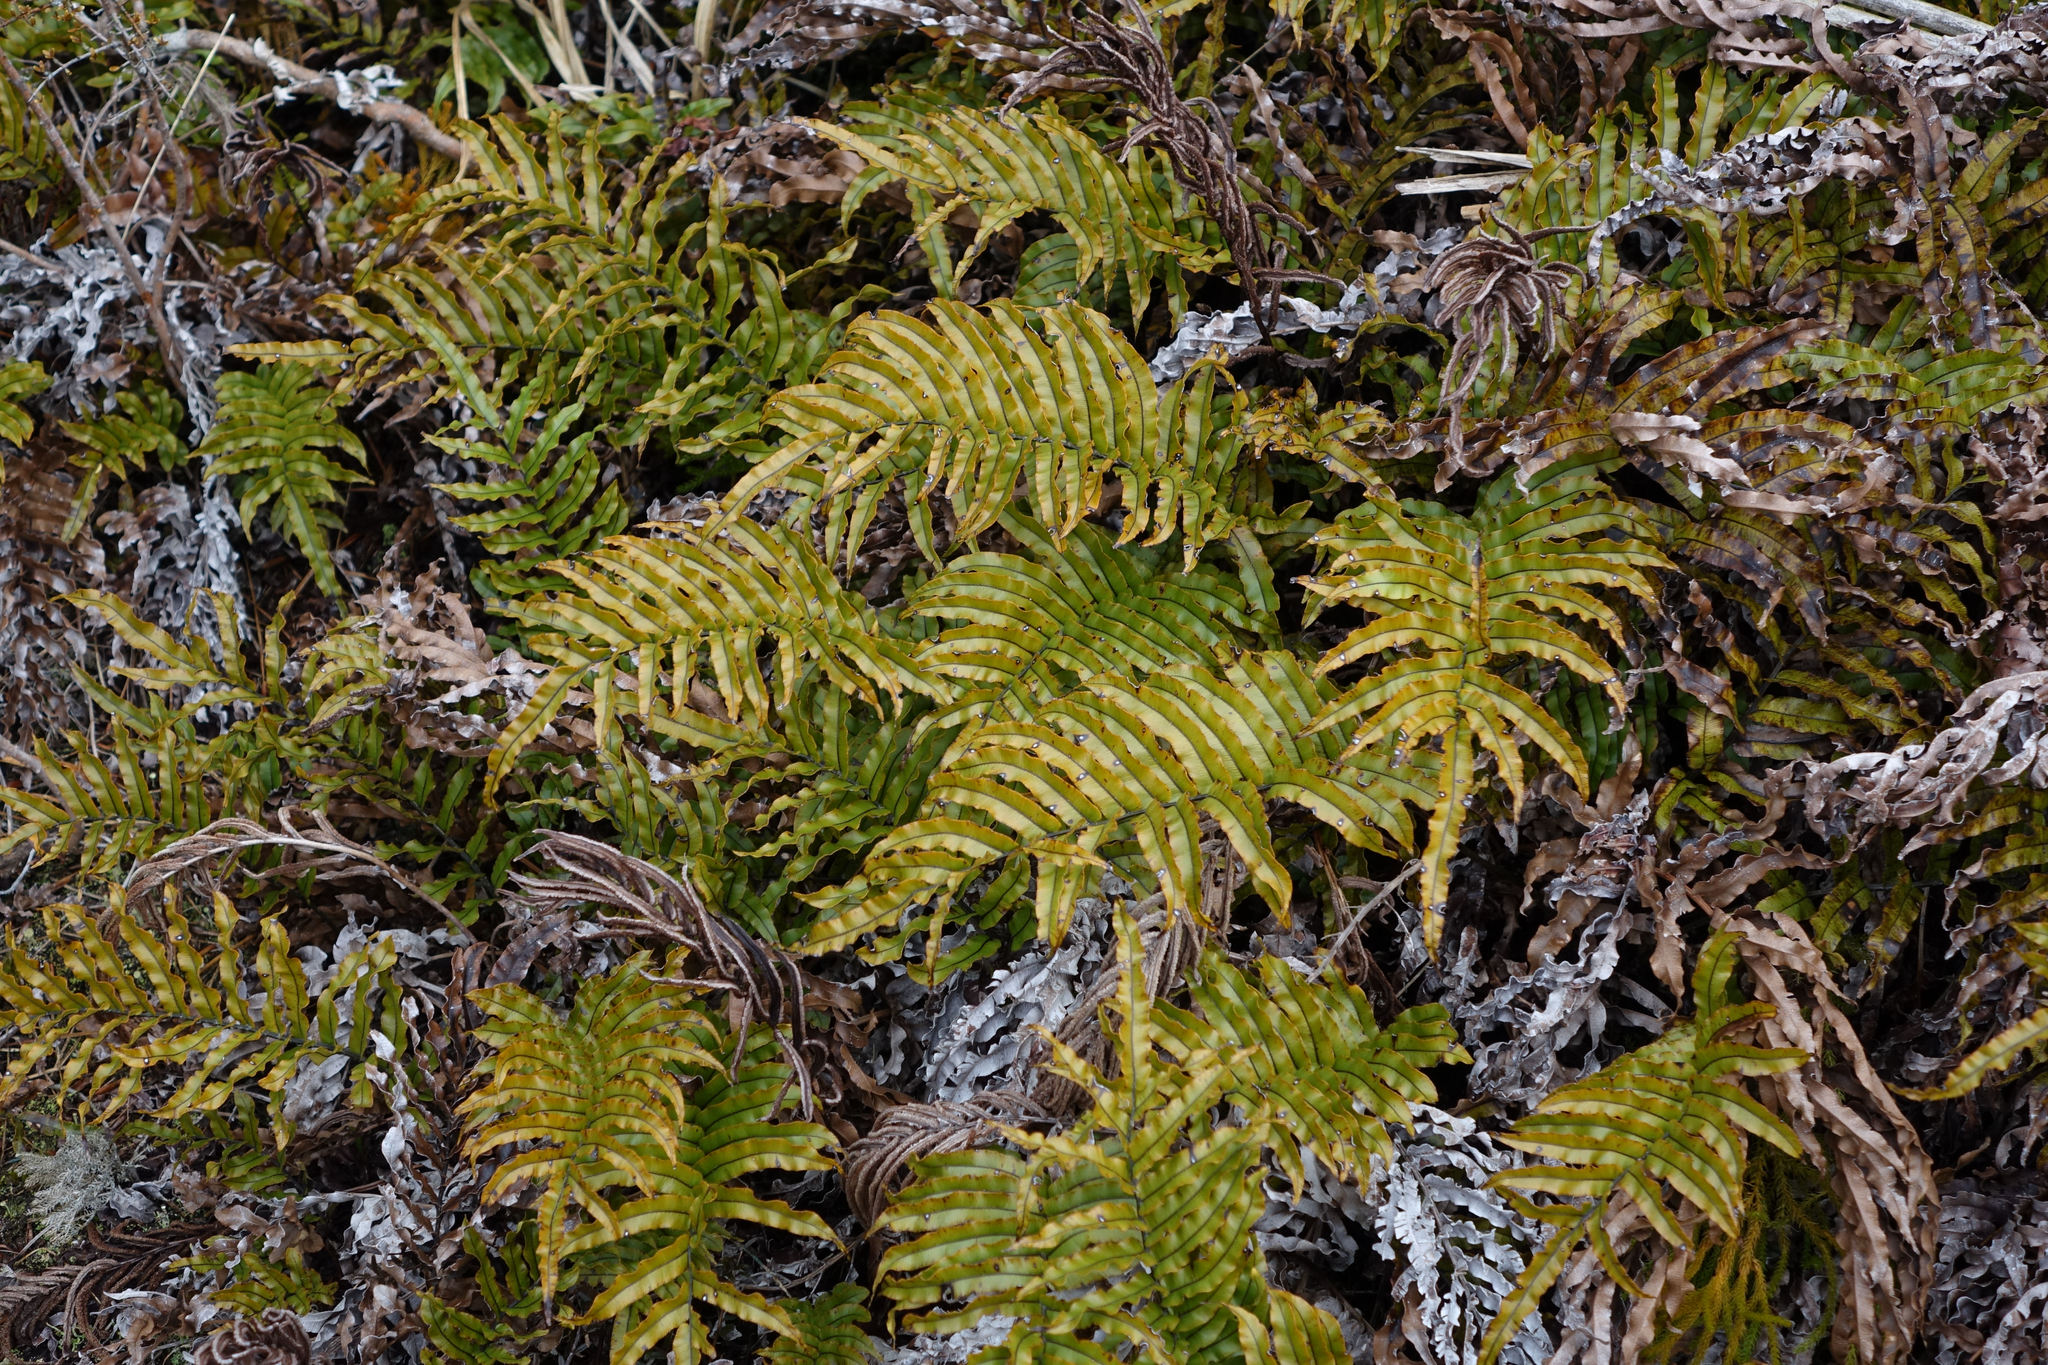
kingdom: Plantae
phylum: Tracheophyta
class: Polypodiopsida
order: Polypodiales
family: Blechnaceae
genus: Parablechnum
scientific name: Parablechnum montanum
